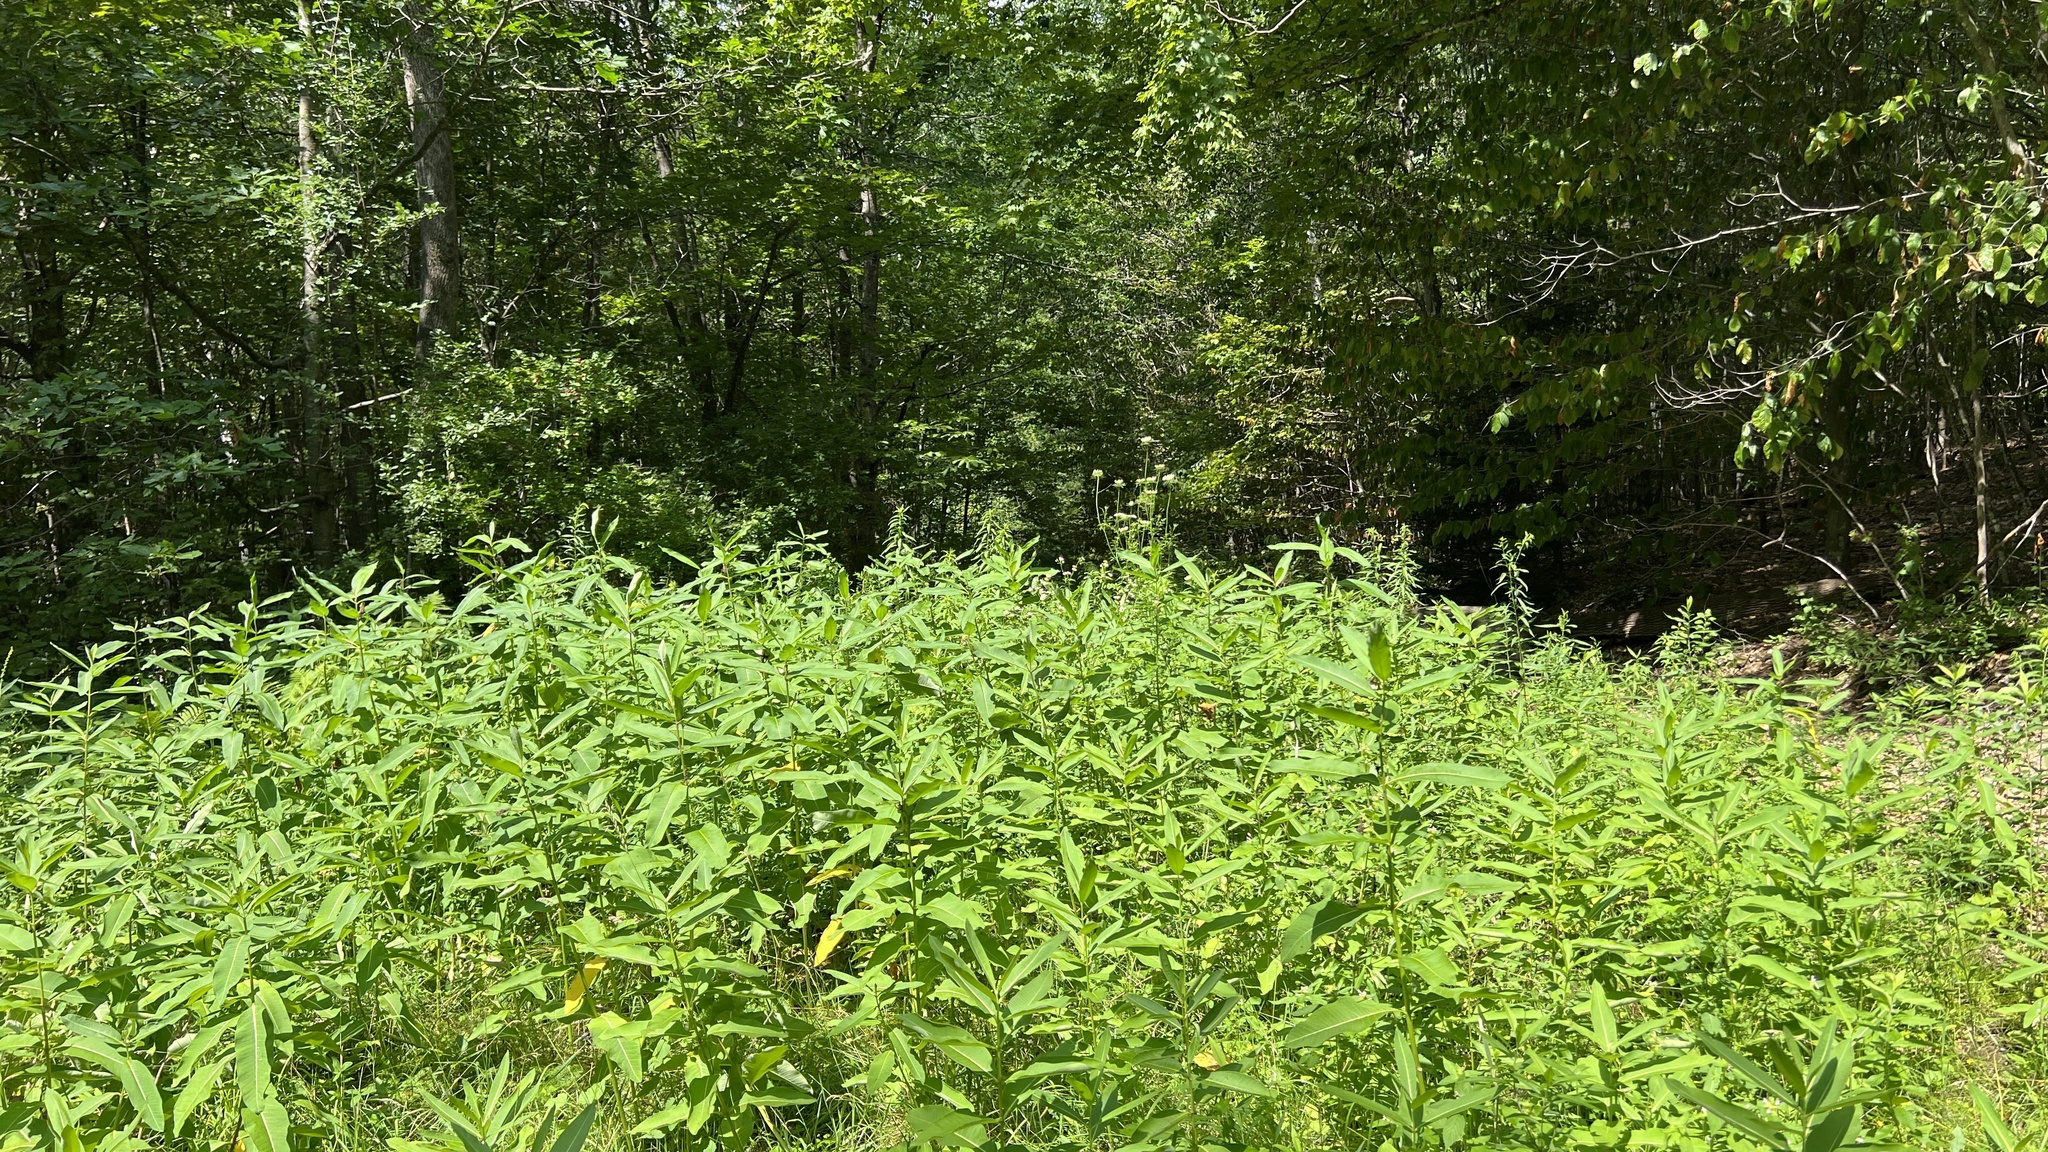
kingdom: Plantae
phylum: Tracheophyta
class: Magnoliopsida
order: Gentianales
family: Apocynaceae
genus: Asclepias
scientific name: Asclepias syriaca
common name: Common milkweed
